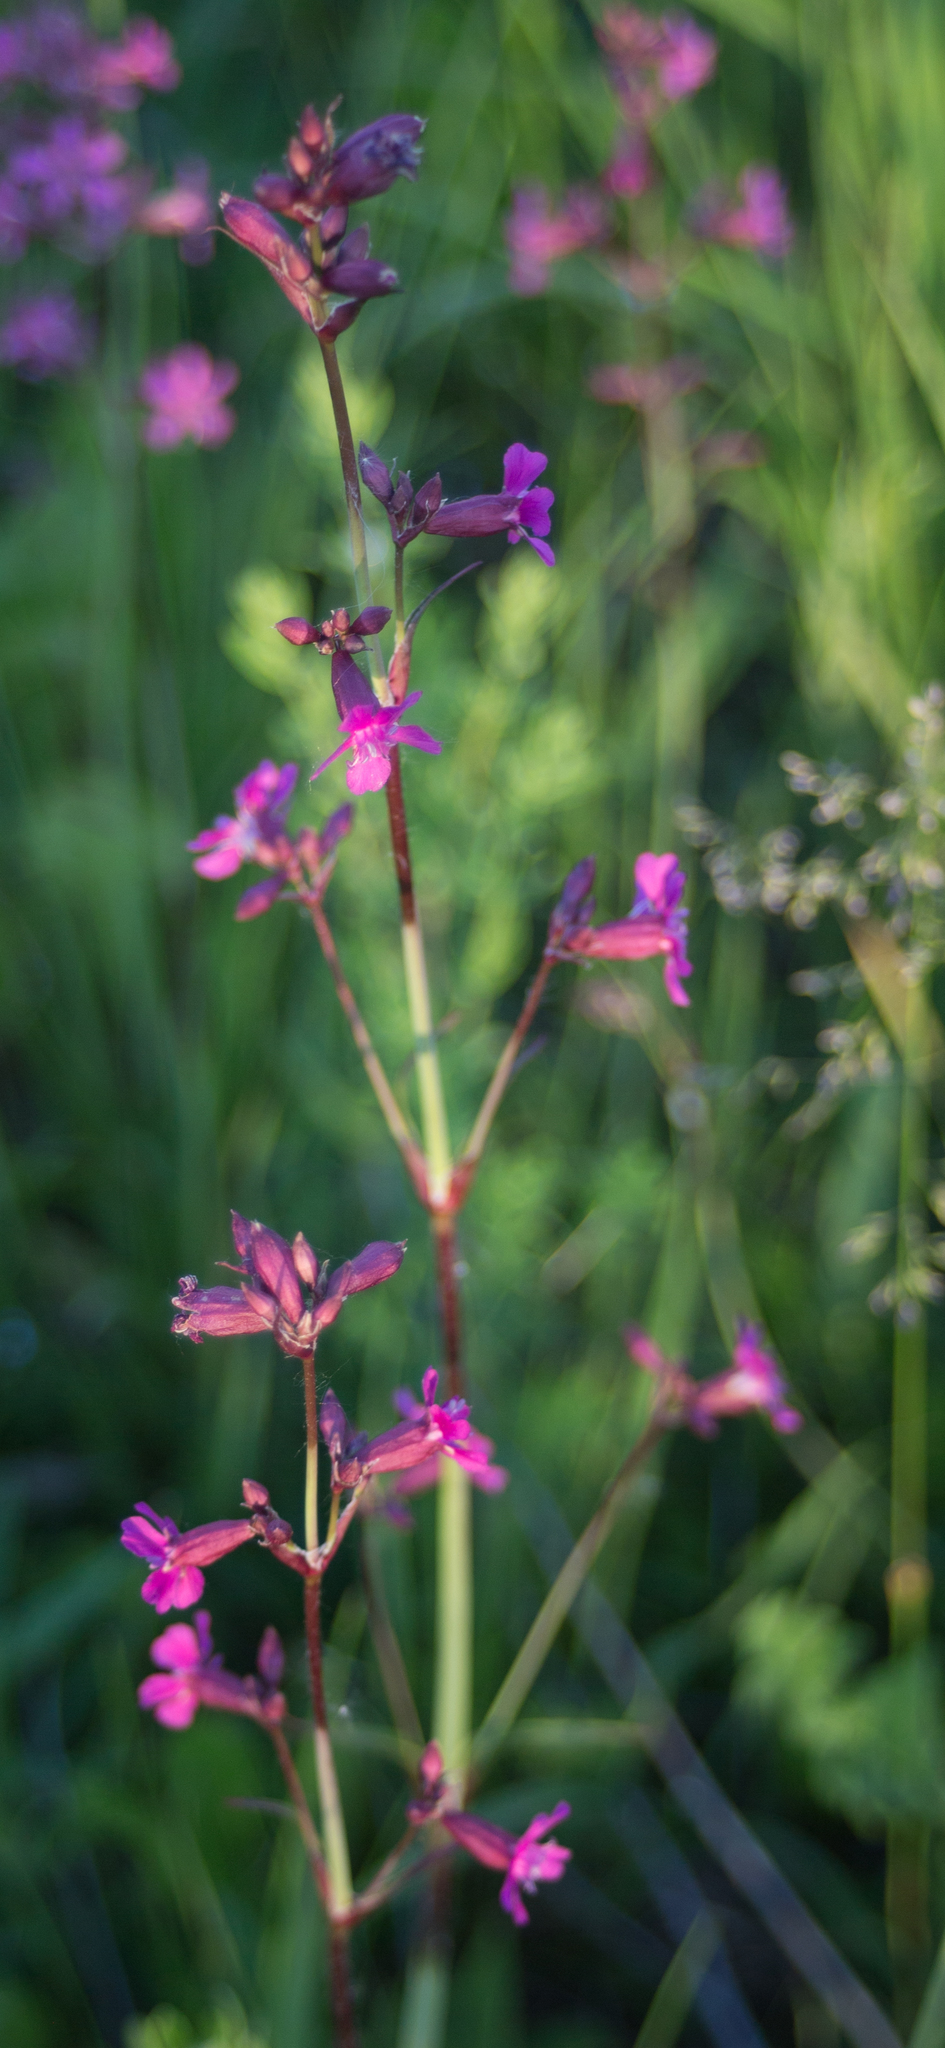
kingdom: Plantae
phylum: Tracheophyta
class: Magnoliopsida
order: Caryophyllales
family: Caryophyllaceae
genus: Viscaria
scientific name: Viscaria vulgaris
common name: Clammy campion
